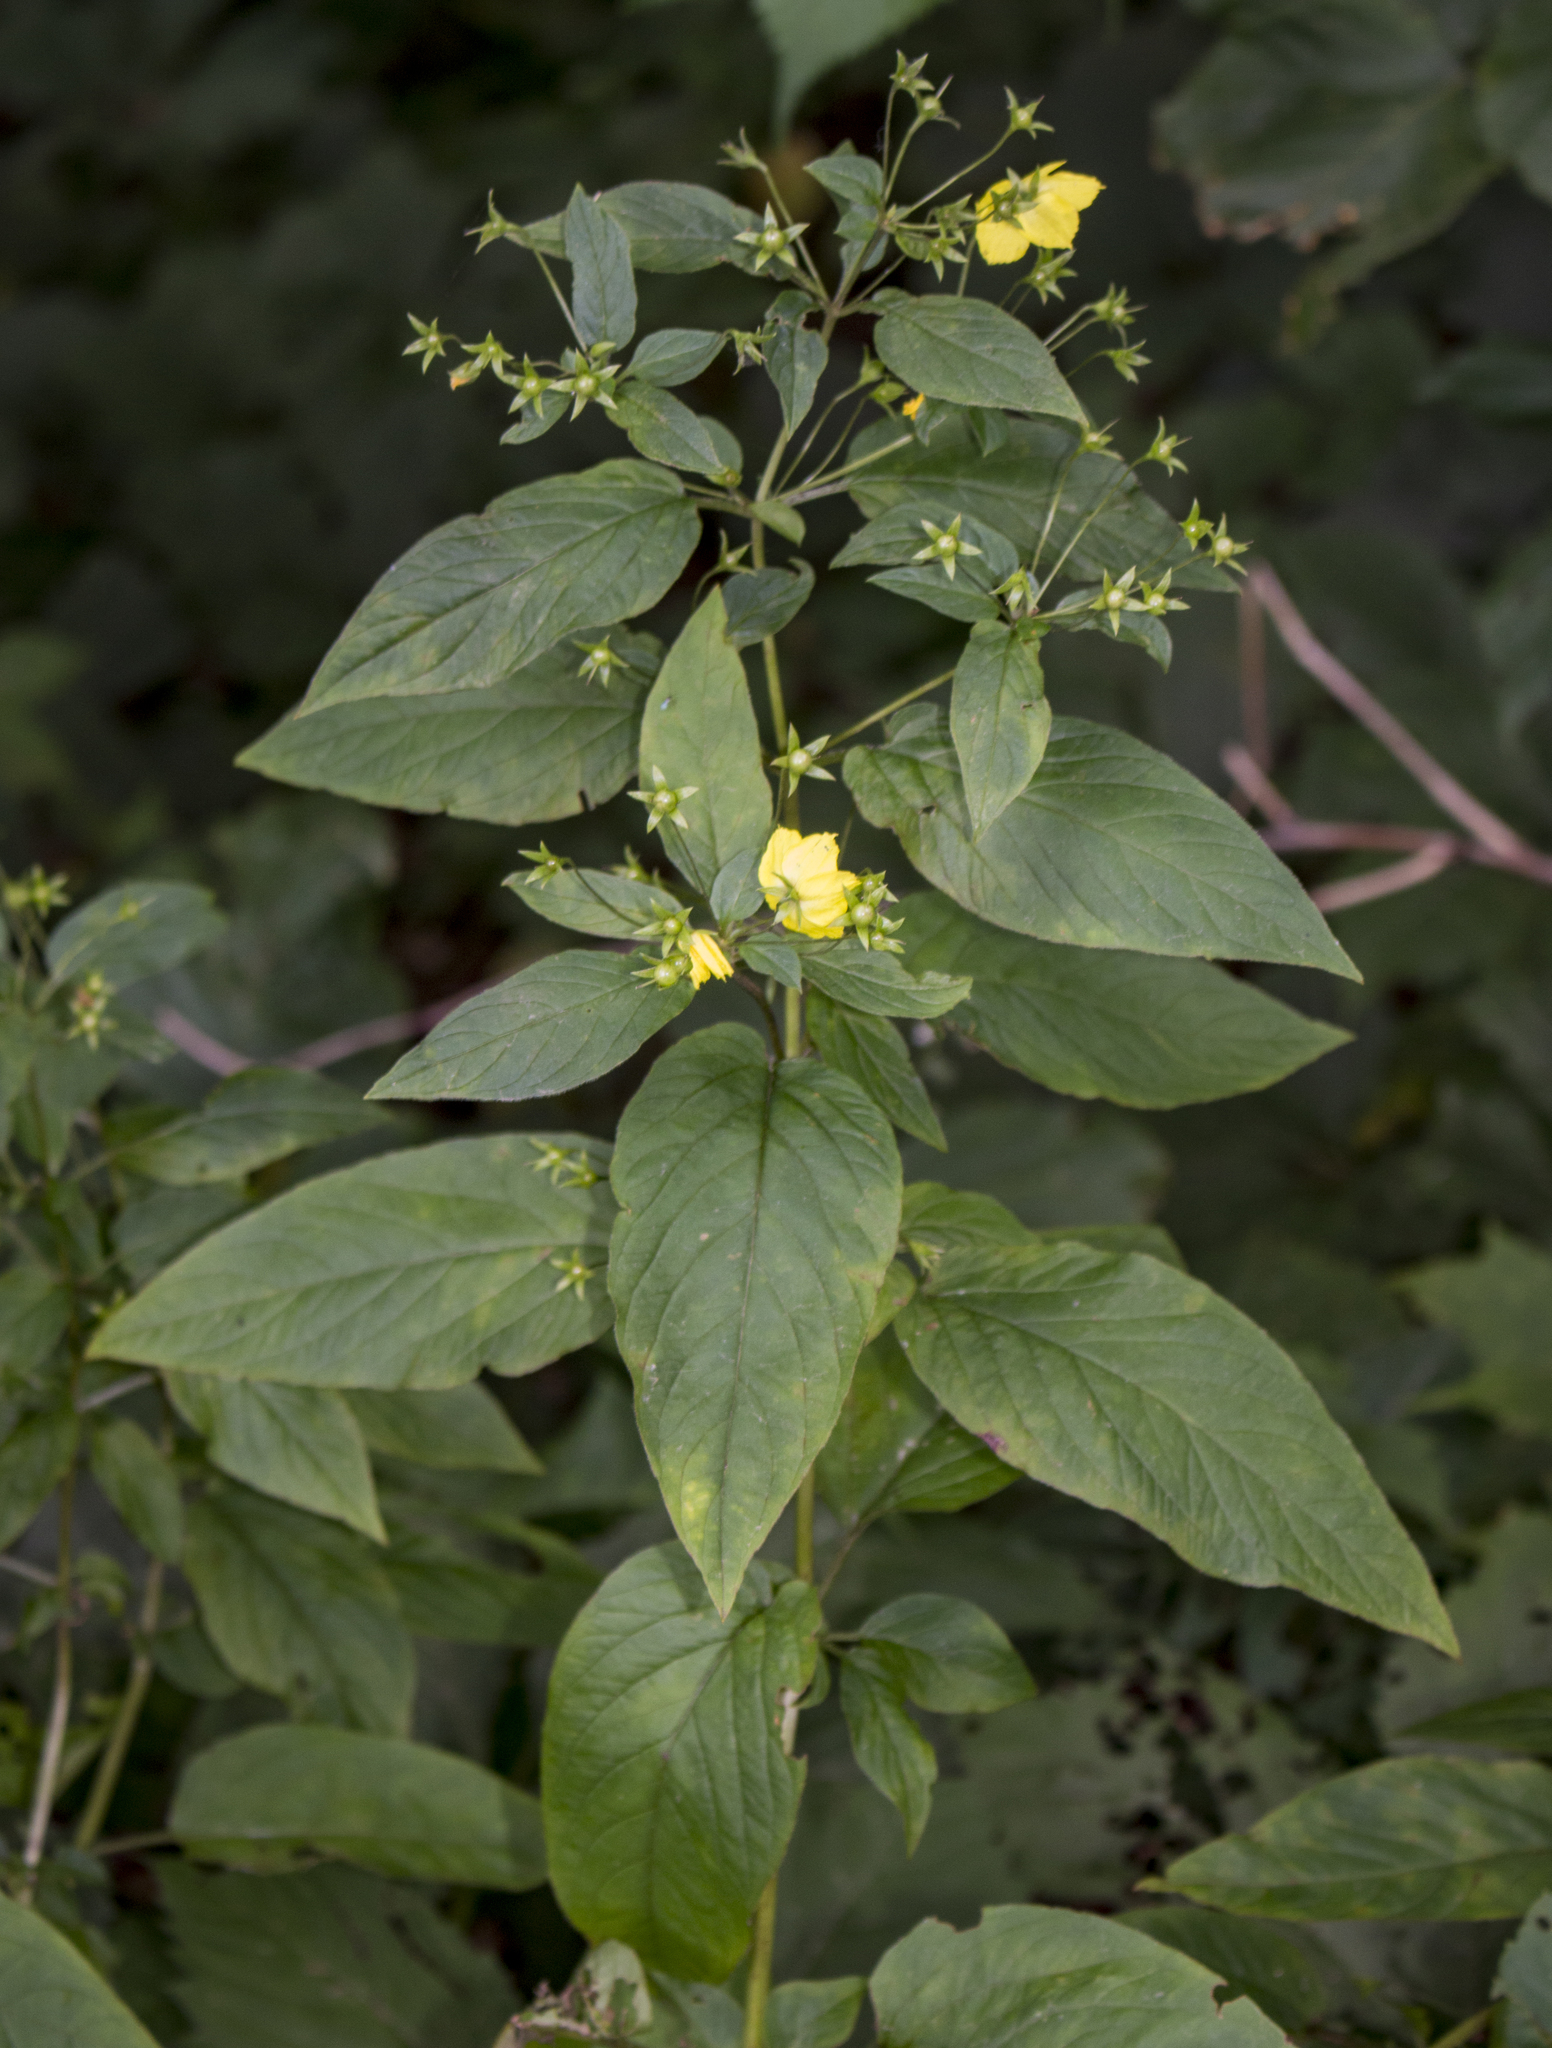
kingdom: Plantae
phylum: Tracheophyta
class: Magnoliopsida
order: Ericales
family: Primulaceae
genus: Lysimachia
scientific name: Lysimachia ciliata
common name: Fringed loosestrife
